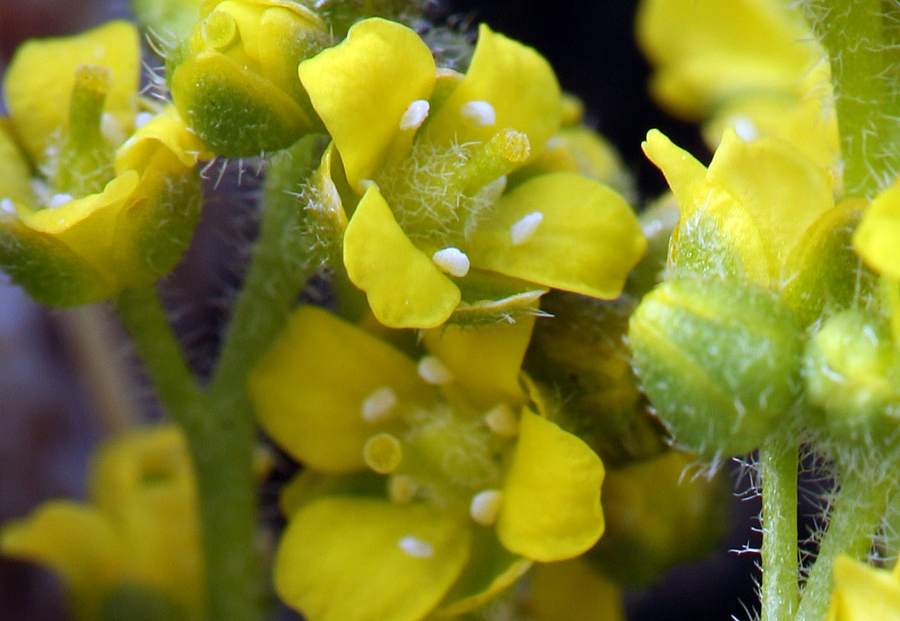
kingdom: Plantae
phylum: Tracheophyta
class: Magnoliopsida
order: Brassicales
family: Brassicaceae
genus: Draba
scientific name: Draba densifolia
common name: Nuttall's draba
